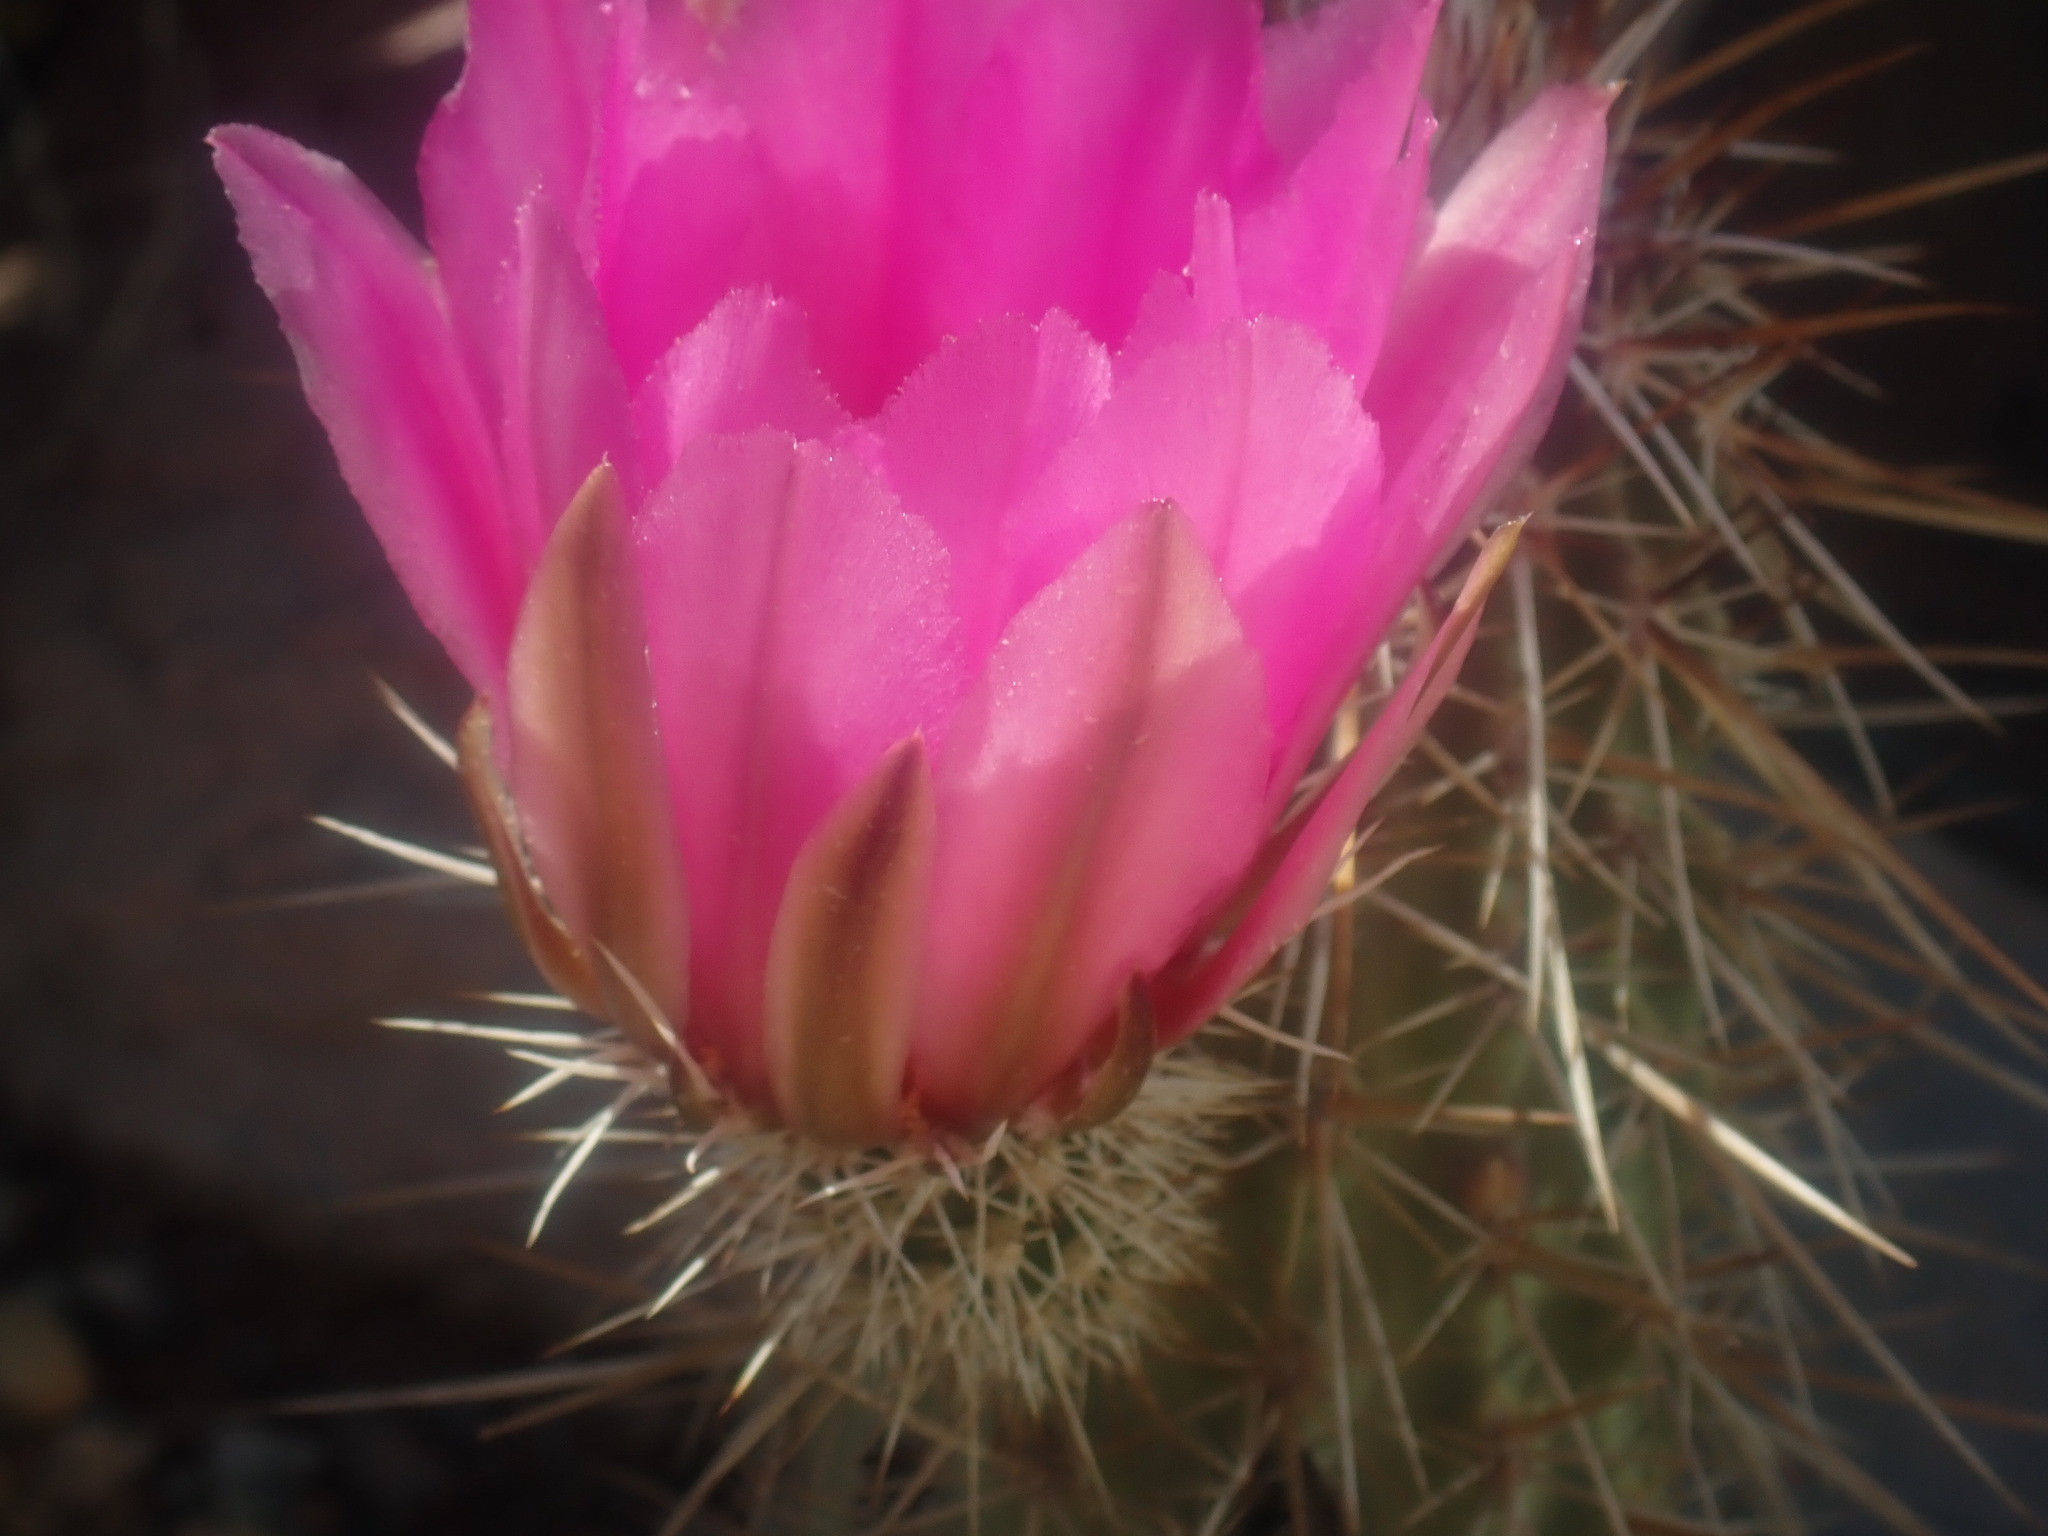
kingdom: Plantae
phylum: Tracheophyta
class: Magnoliopsida
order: Caryophyllales
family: Cactaceae
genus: Echinocereus
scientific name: Echinocereus engelmannii
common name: Engelmann's hedgehog cactus
